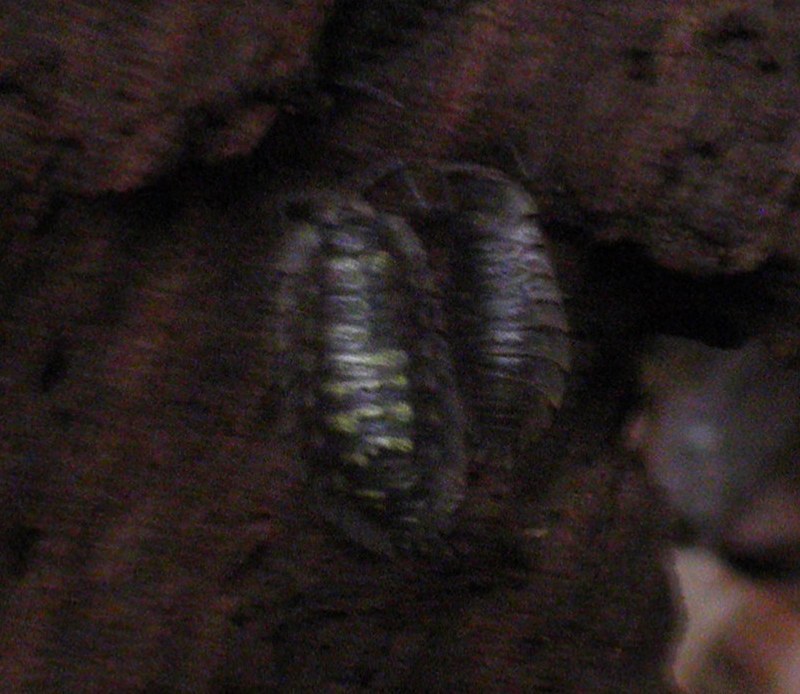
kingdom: Animalia
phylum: Arthropoda
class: Malacostraca
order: Isopoda
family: Oniscidae
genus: Oniscus
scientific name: Oniscus asellus
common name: Common shiny woodlouse
